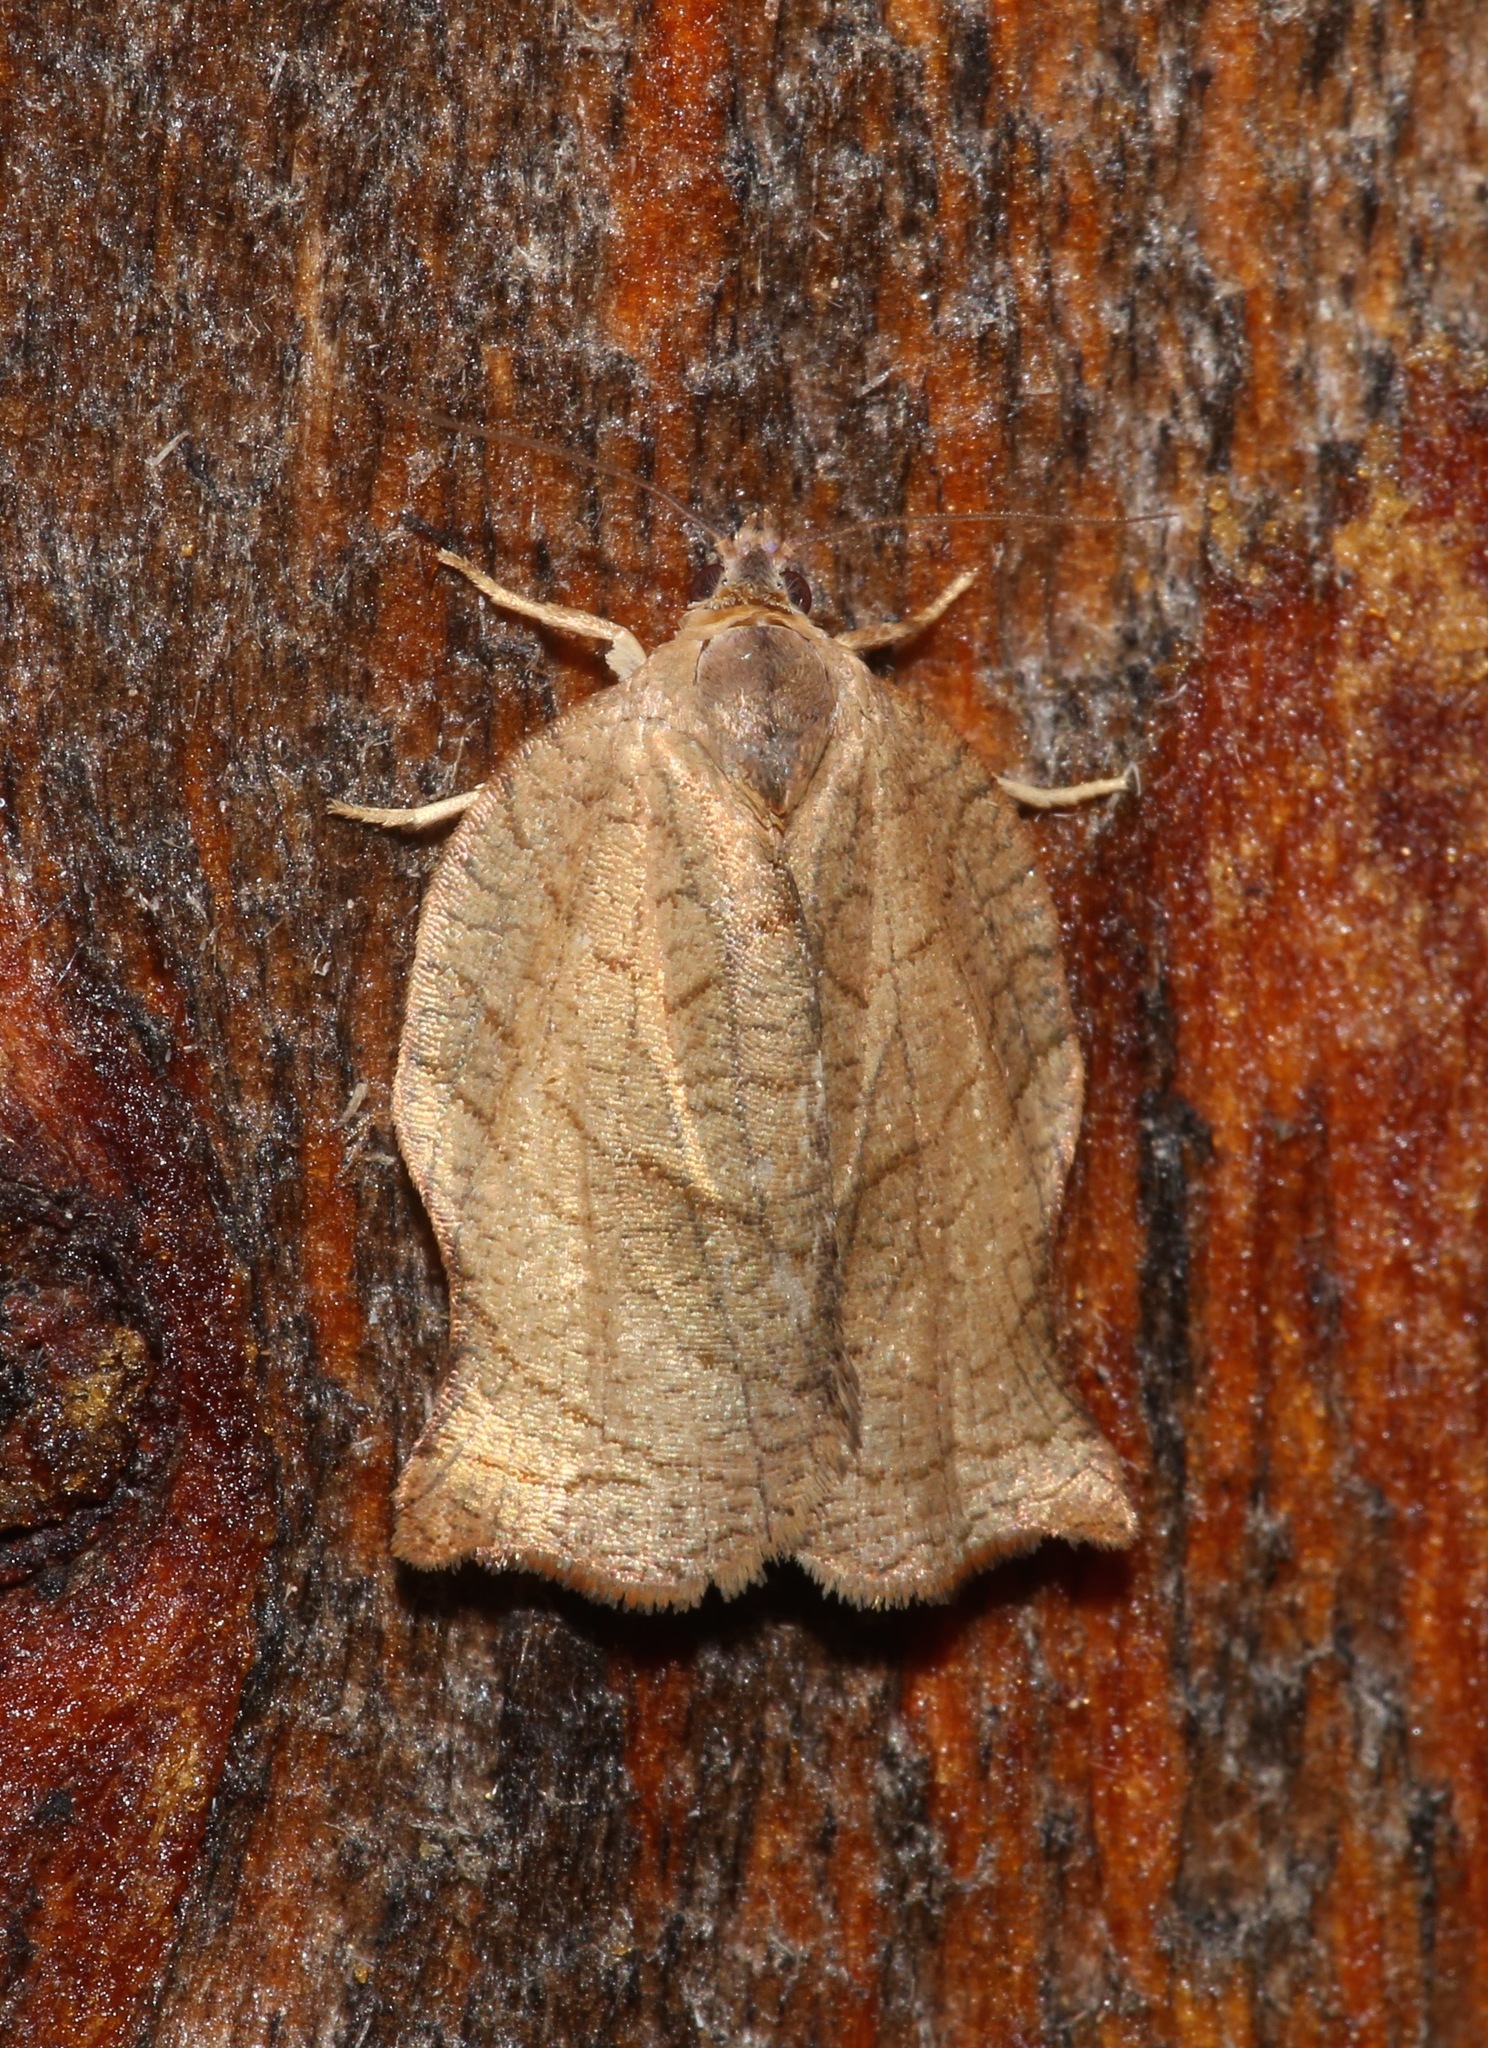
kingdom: Animalia
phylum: Arthropoda
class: Insecta
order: Lepidoptera
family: Tortricidae
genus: Archips
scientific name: Archips purpurana
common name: Omnivorous leafroller
